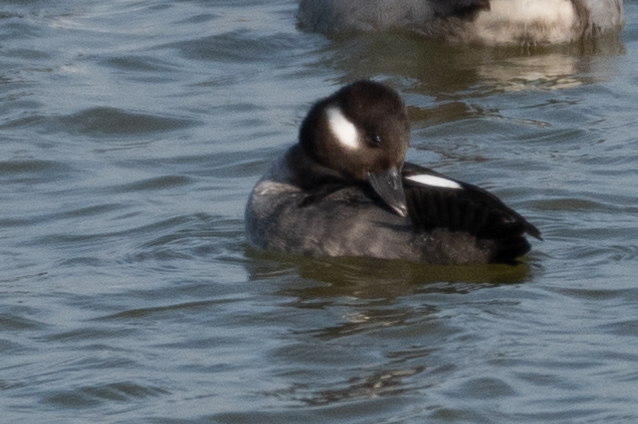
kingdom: Animalia
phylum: Chordata
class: Aves
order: Anseriformes
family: Anatidae
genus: Bucephala
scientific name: Bucephala albeola
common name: Bufflehead
